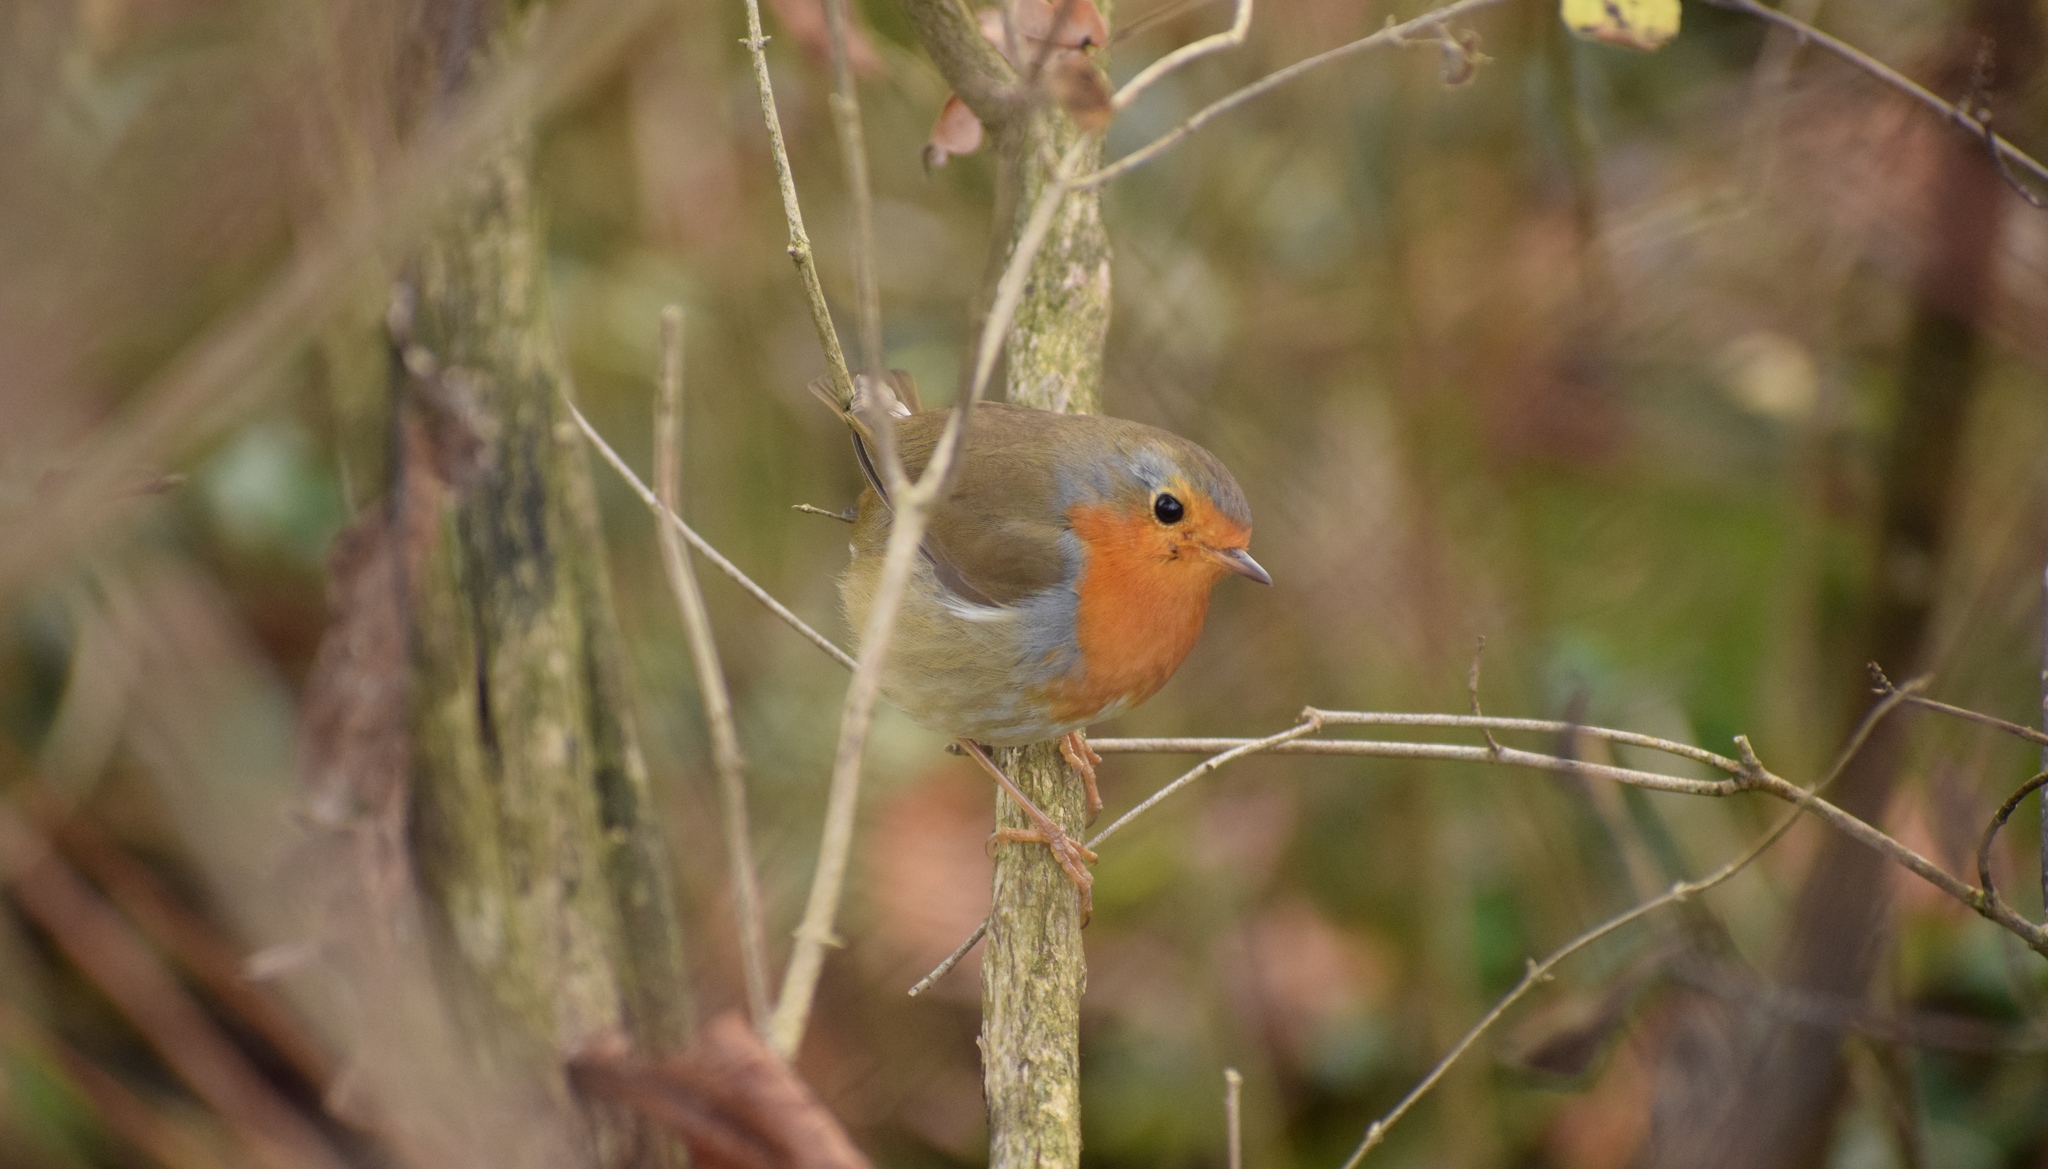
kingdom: Animalia
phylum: Chordata
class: Aves
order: Passeriformes
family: Muscicapidae
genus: Erithacus
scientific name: Erithacus rubecula
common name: European robin
